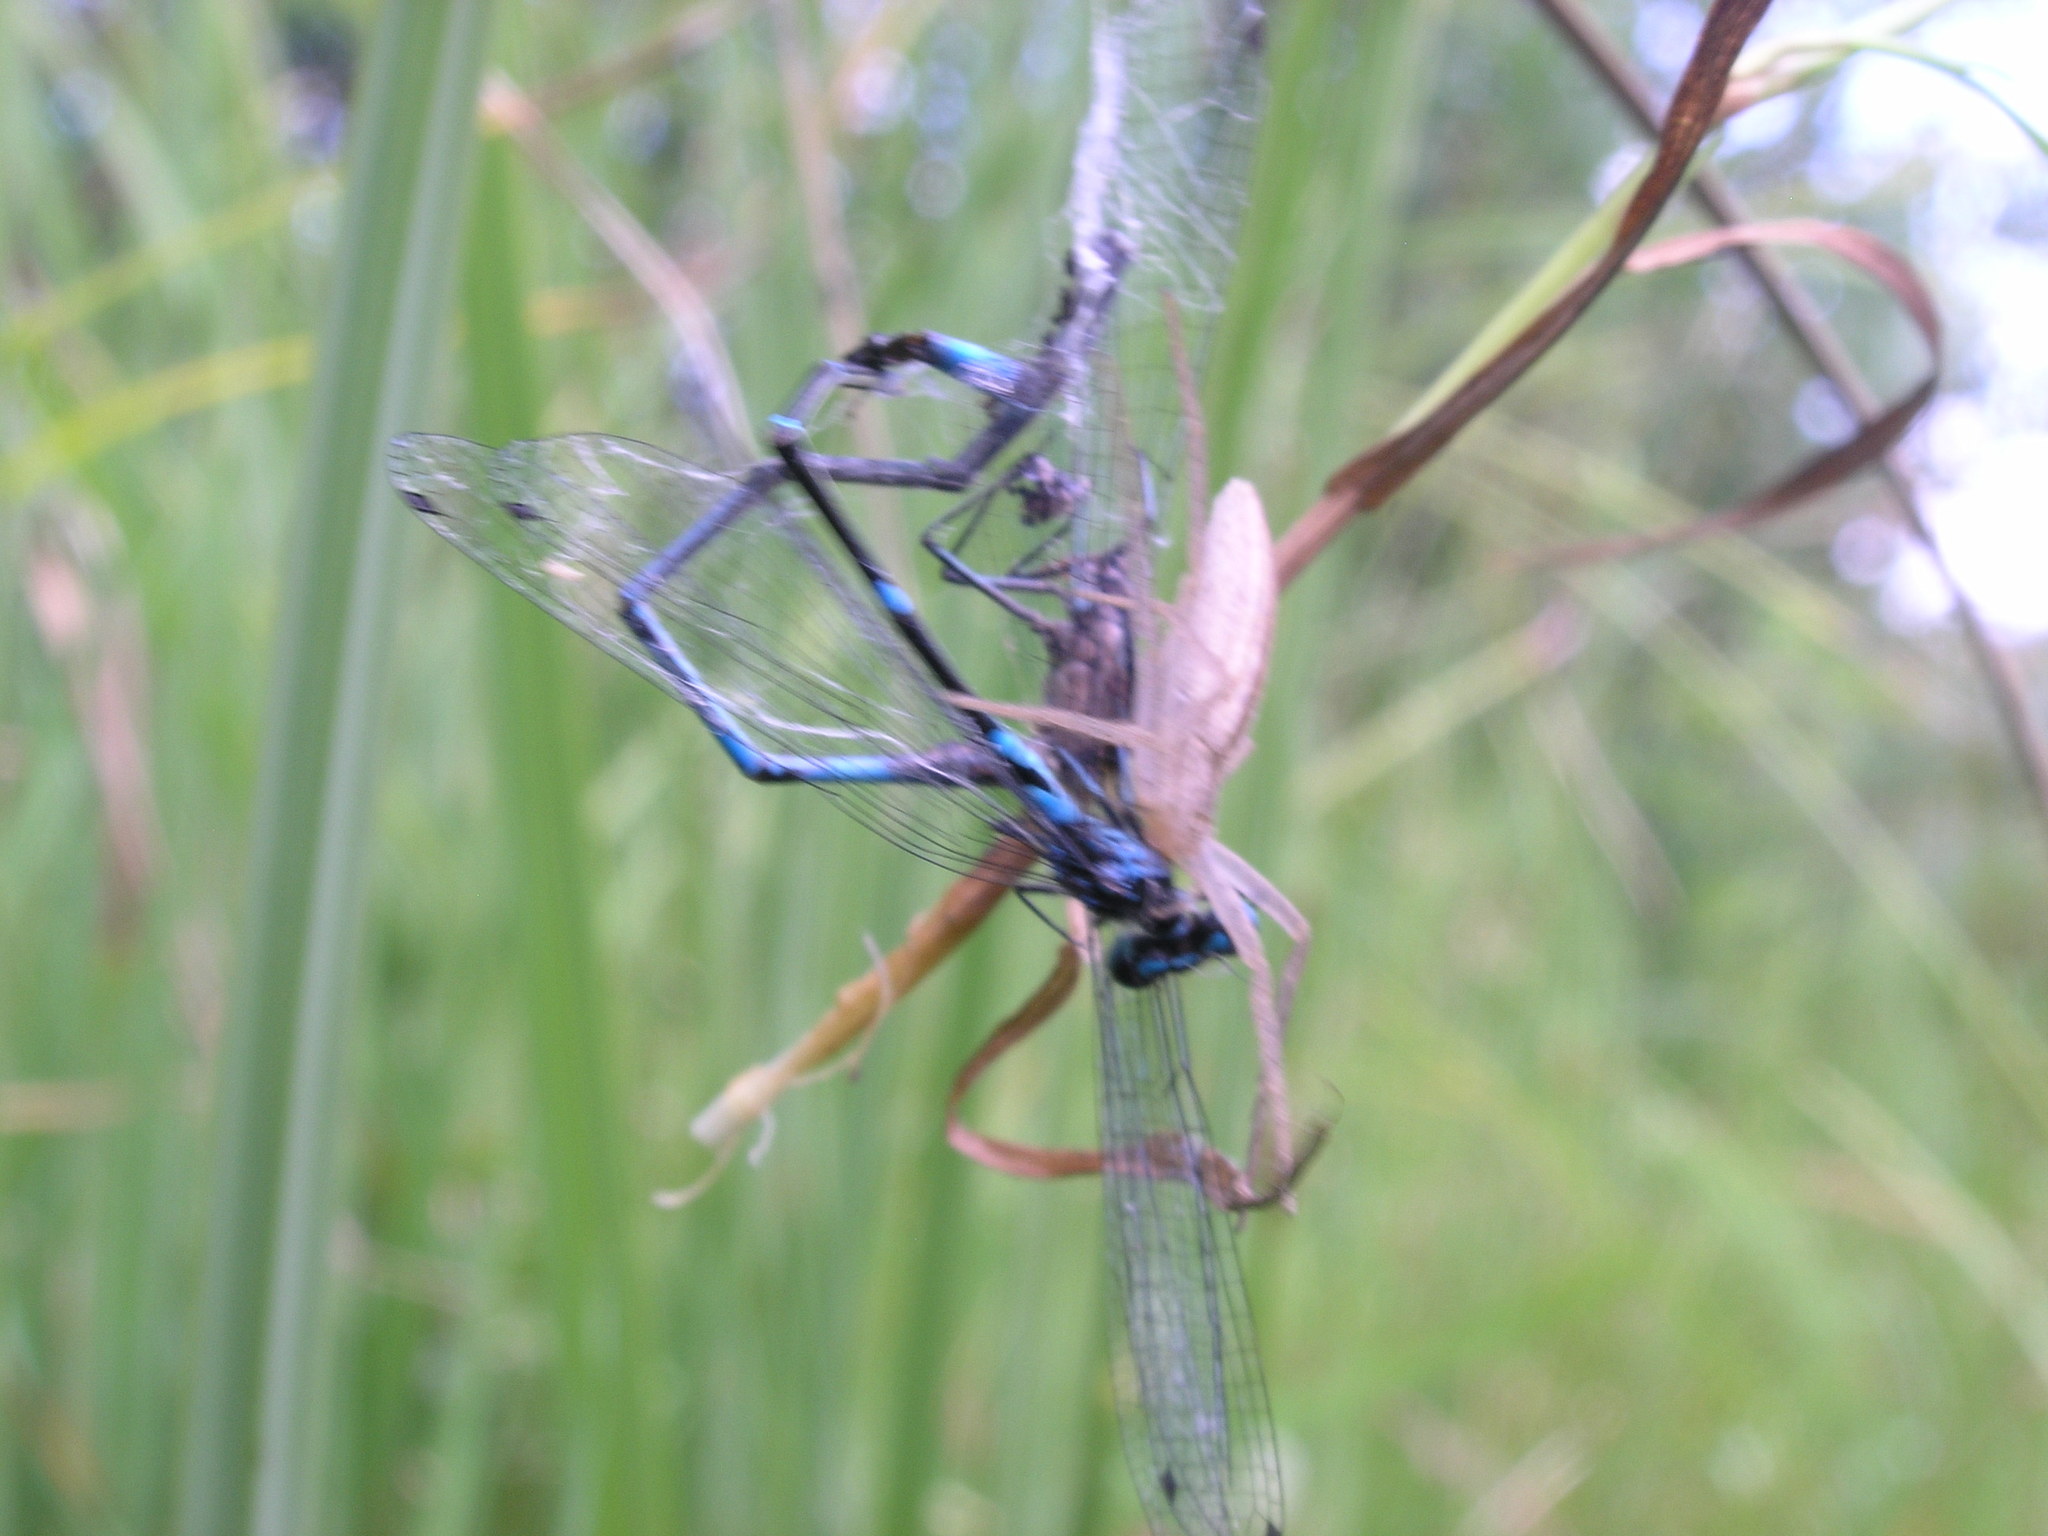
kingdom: Animalia
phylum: Arthropoda
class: Insecta
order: Odonata
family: Coenagrionidae
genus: Coenagrion
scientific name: Coenagrion pulchellum
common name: Variable bluet
